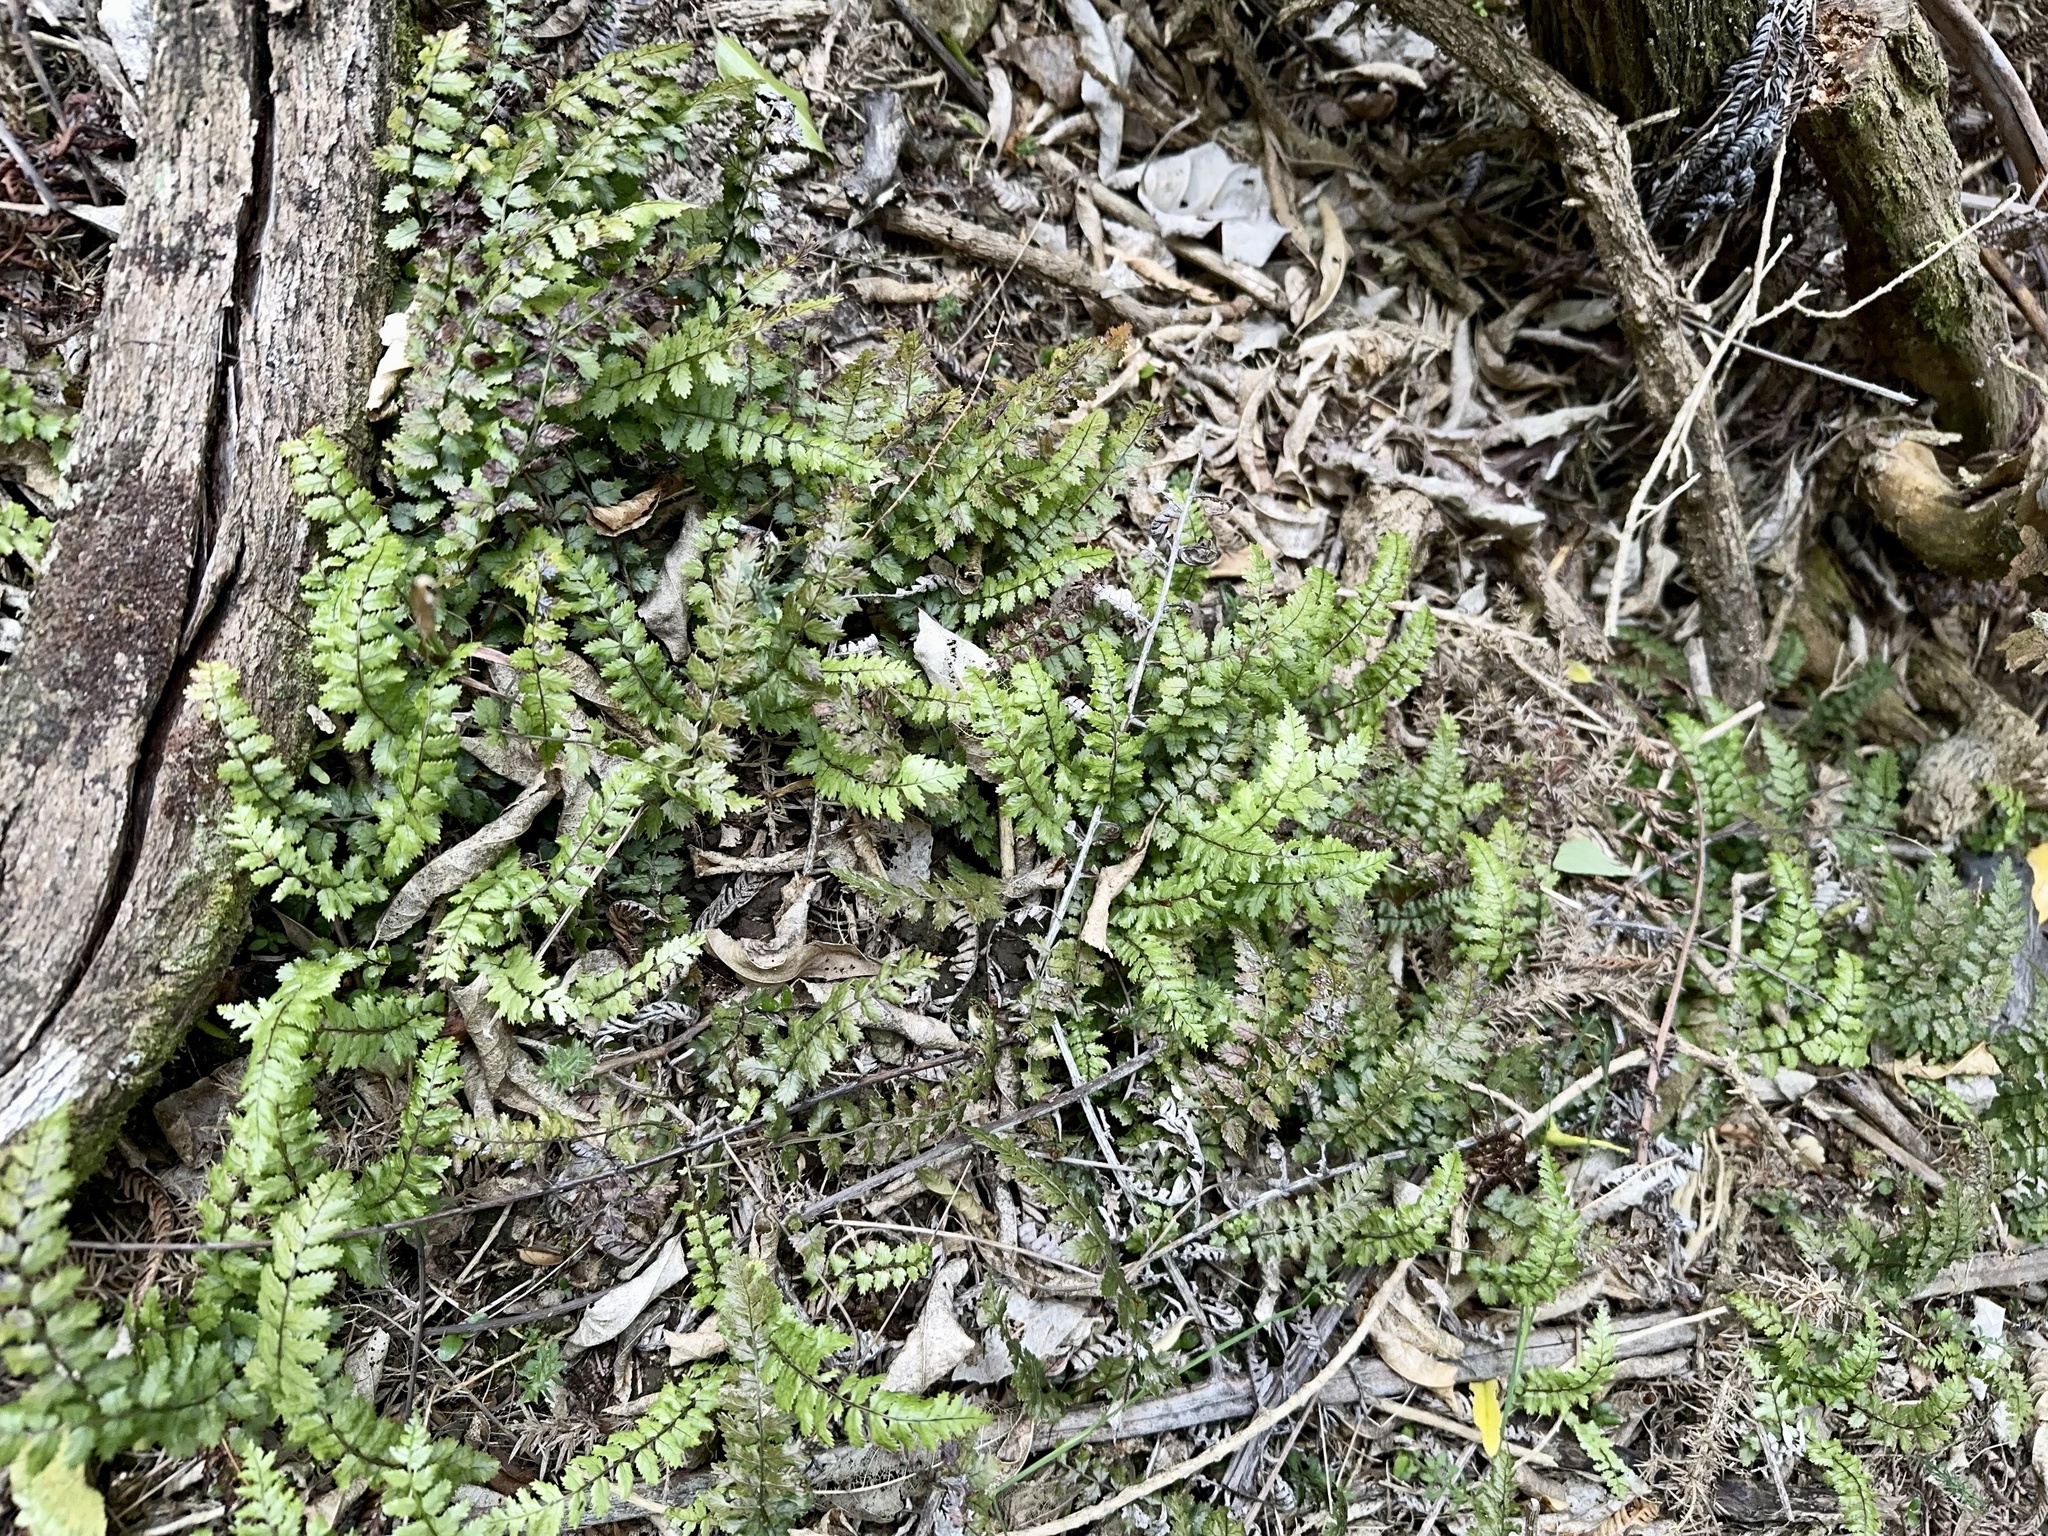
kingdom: Plantae
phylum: Tracheophyta
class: Polypodiopsida
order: Polypodiales
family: Blechnaceae
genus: Icarus
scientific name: Icarus filiformis
